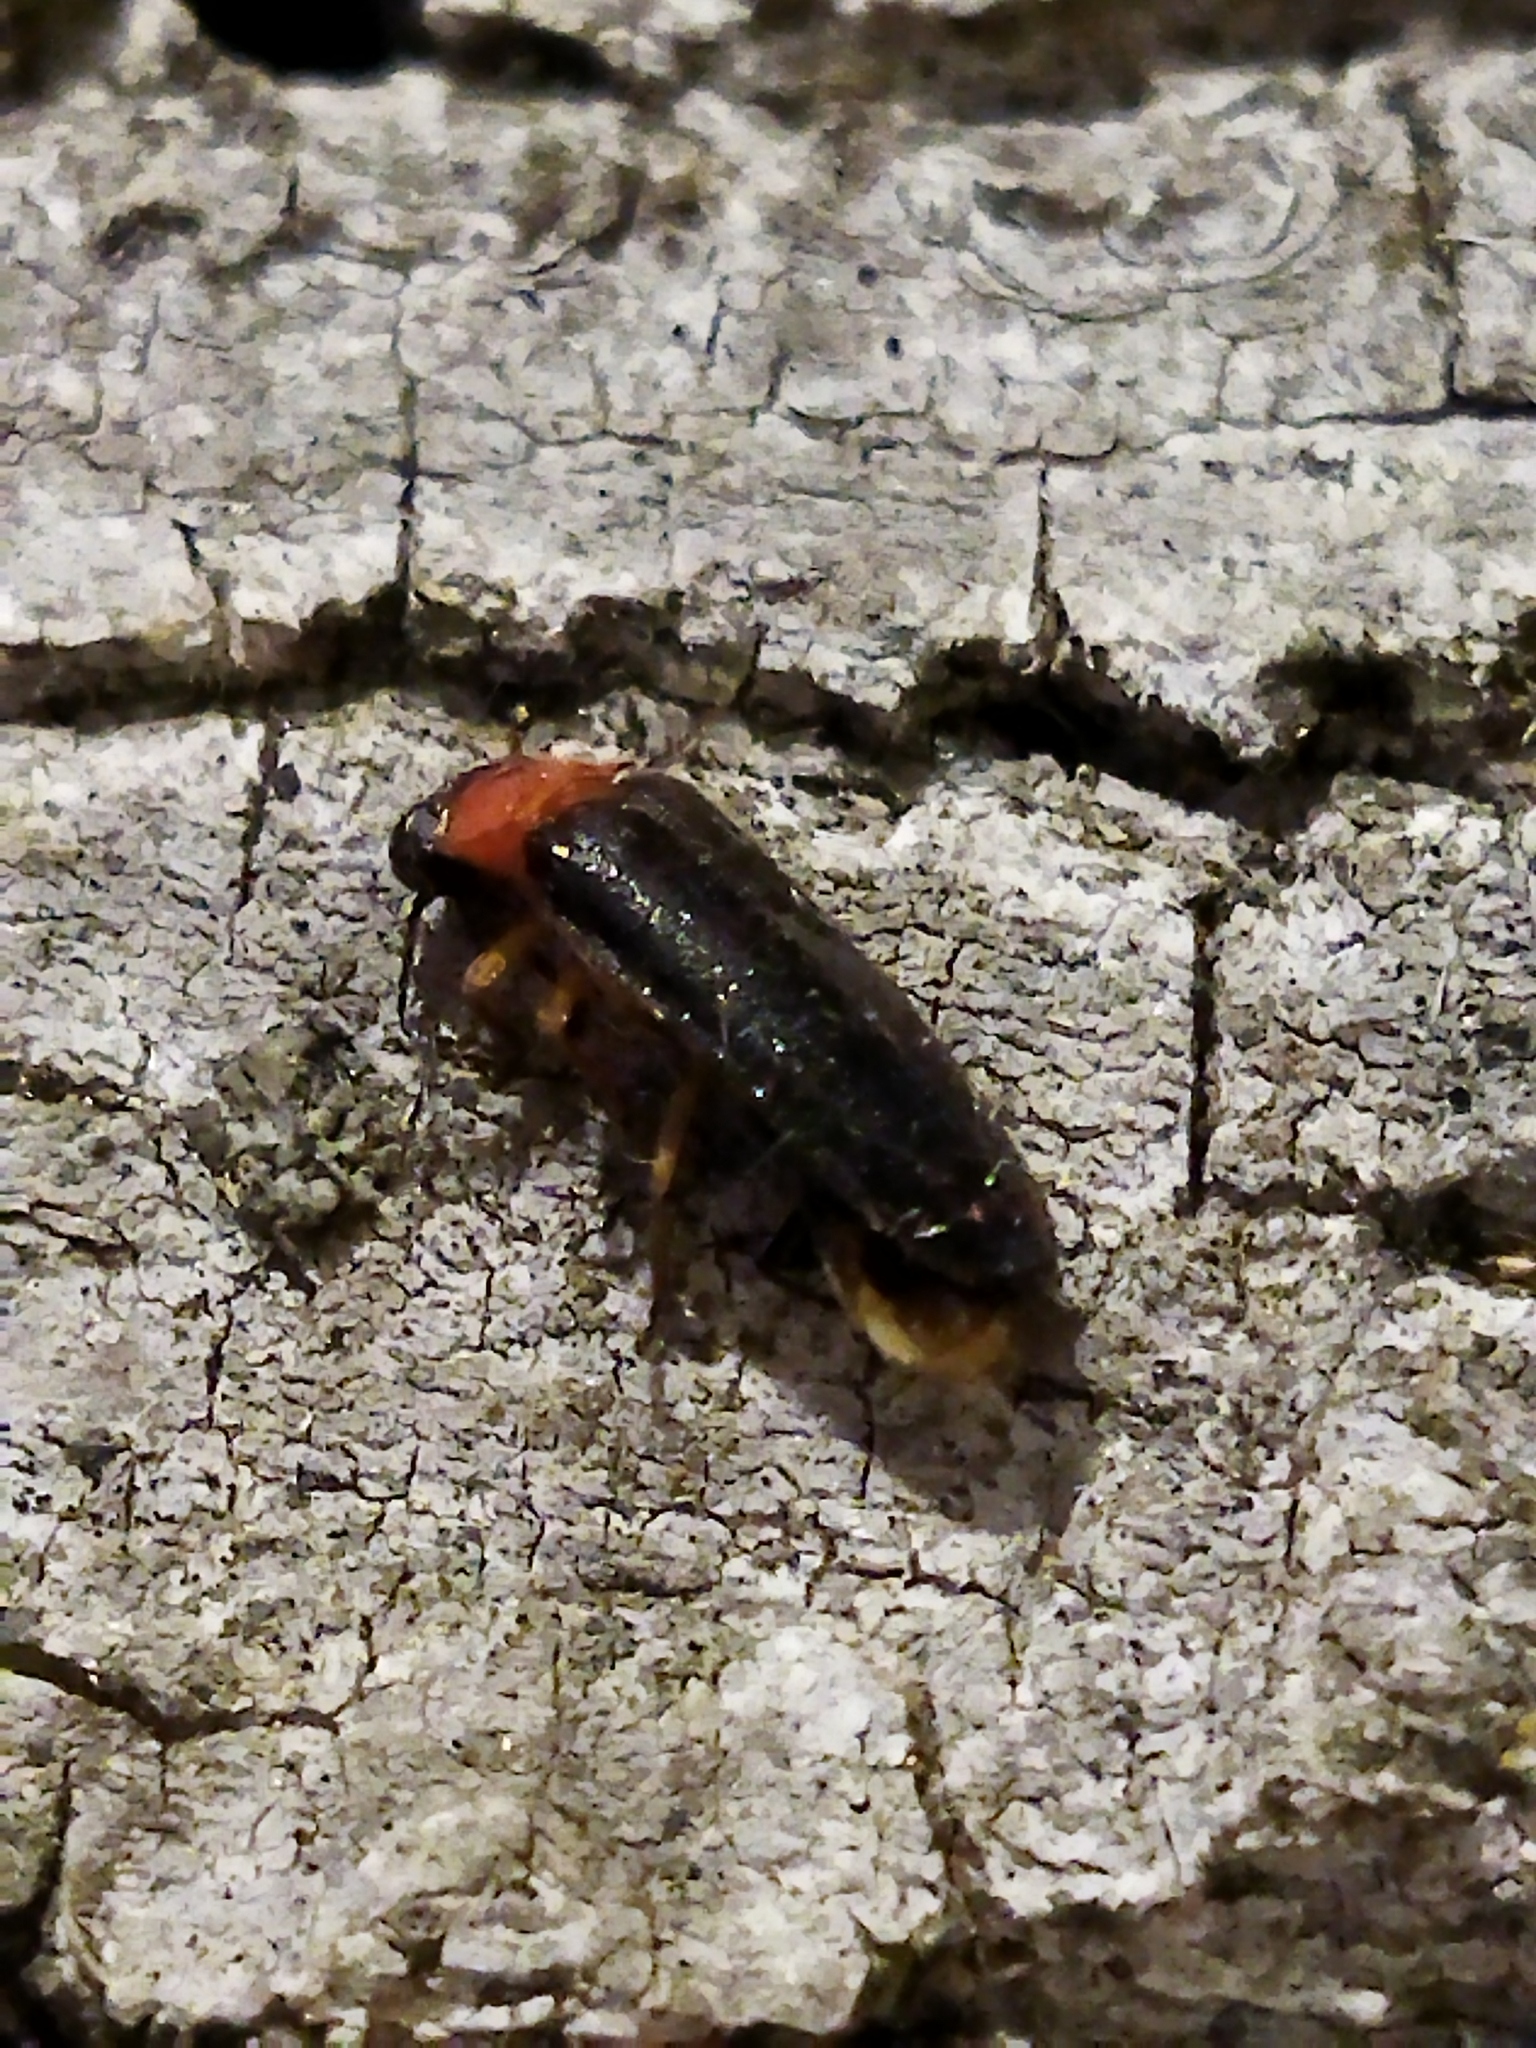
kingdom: Animalia
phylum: Arthropoda
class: Insecta
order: Coleoptera
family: Lampyridae
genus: Luciola
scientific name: Luciola lusitanica
